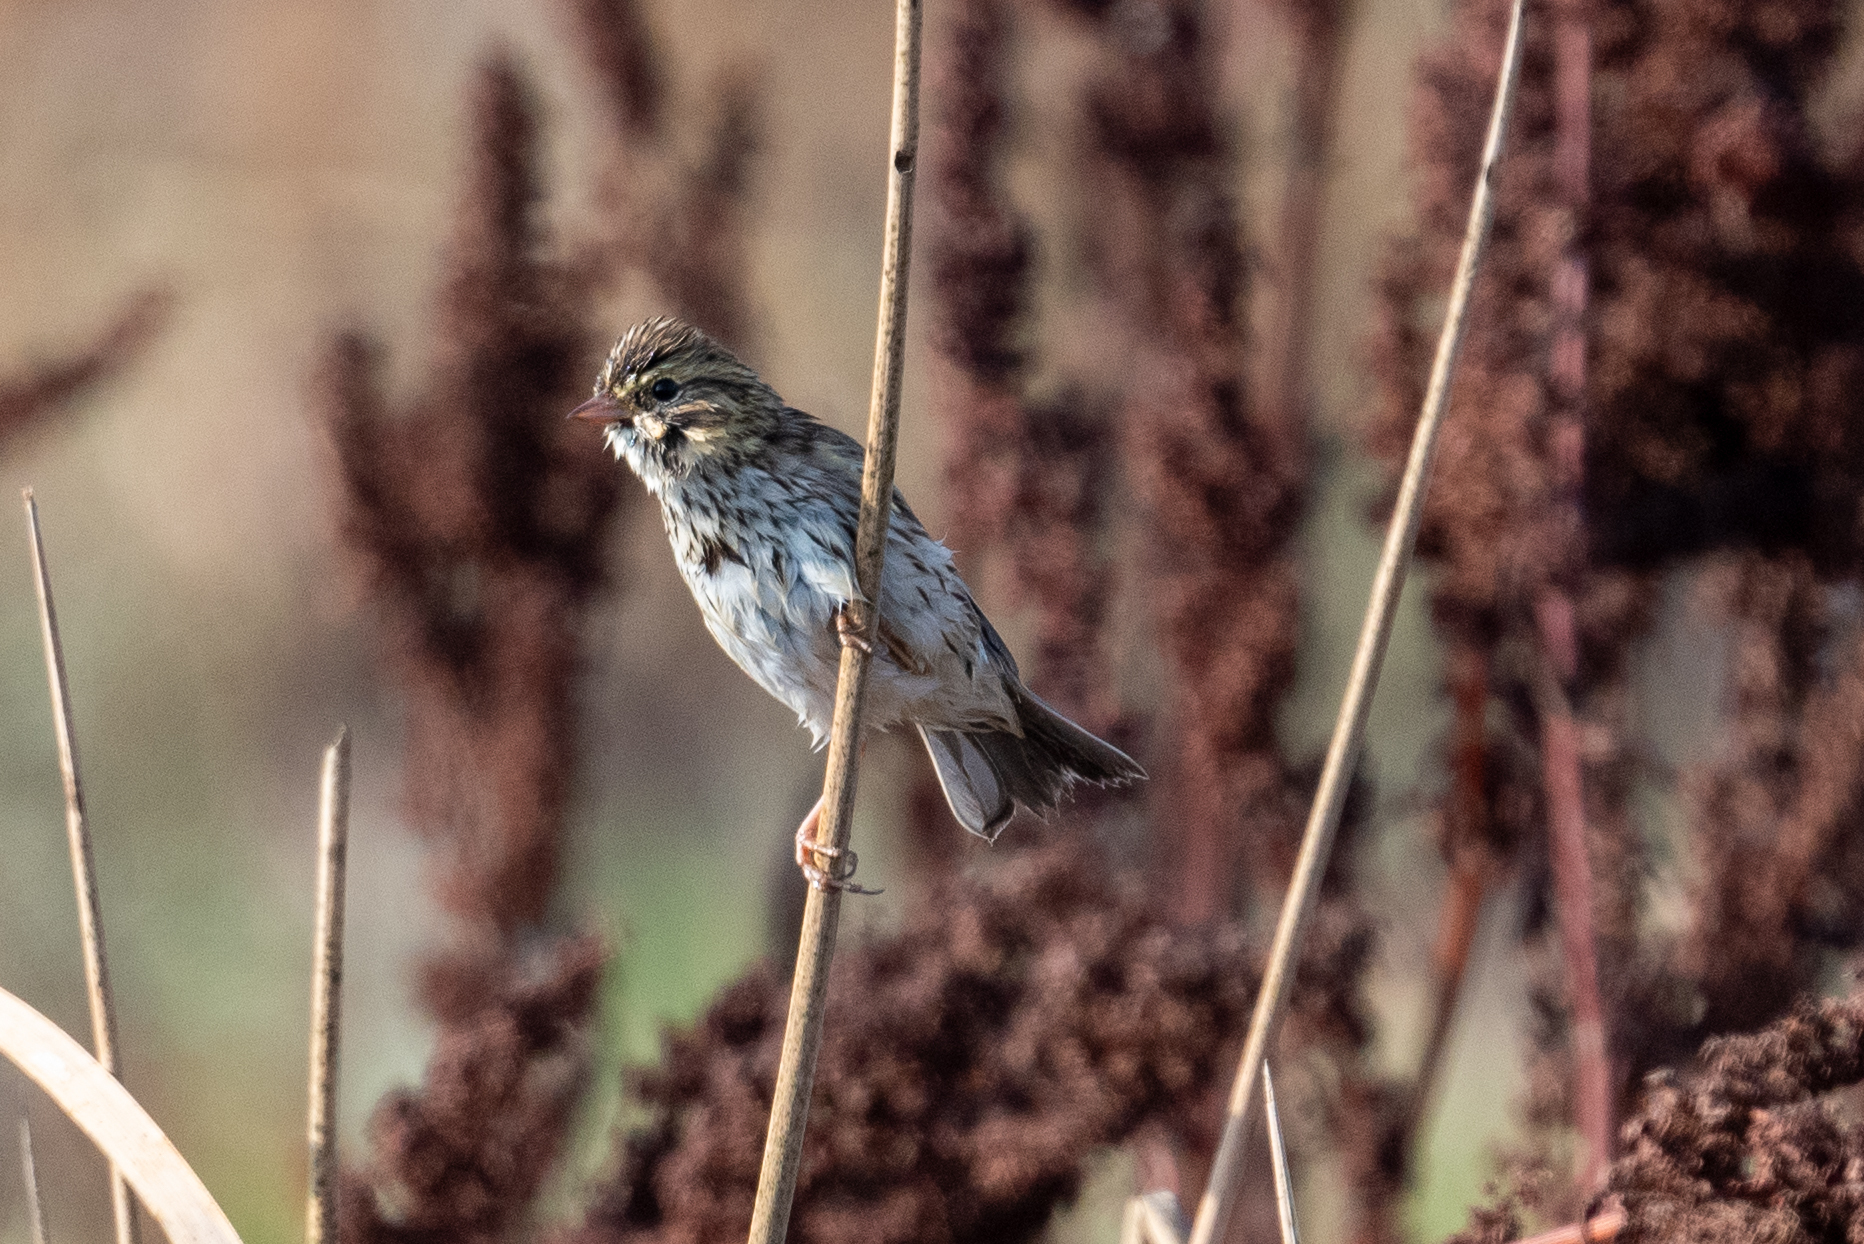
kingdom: Animalia
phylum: Chordata
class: Aves
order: Passeriformes
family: Passerellidae
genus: Passerculus
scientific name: Passerculus sandwichensis
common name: Savannah sparrow
